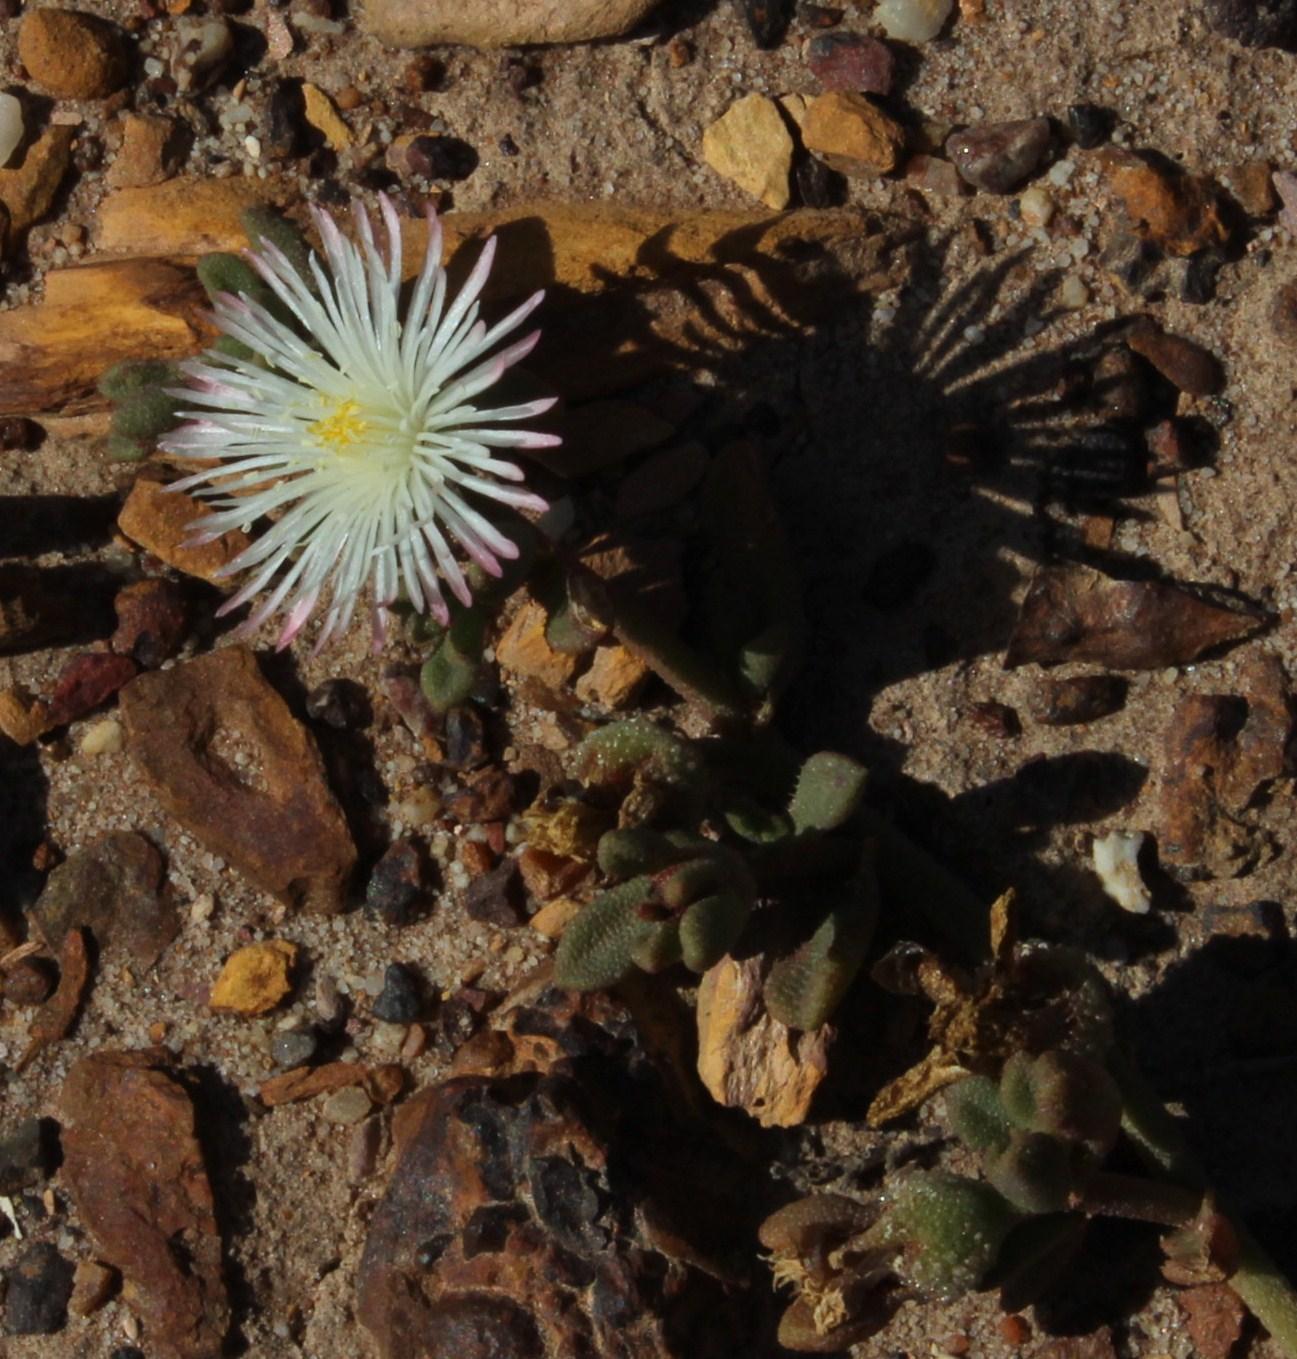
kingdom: Plantae
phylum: Tracheophyta
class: Magnoliopsida
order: Caryophyllales
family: Aizoaceae
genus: Mesembryanthemum
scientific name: Mesembryanthemum paulum
